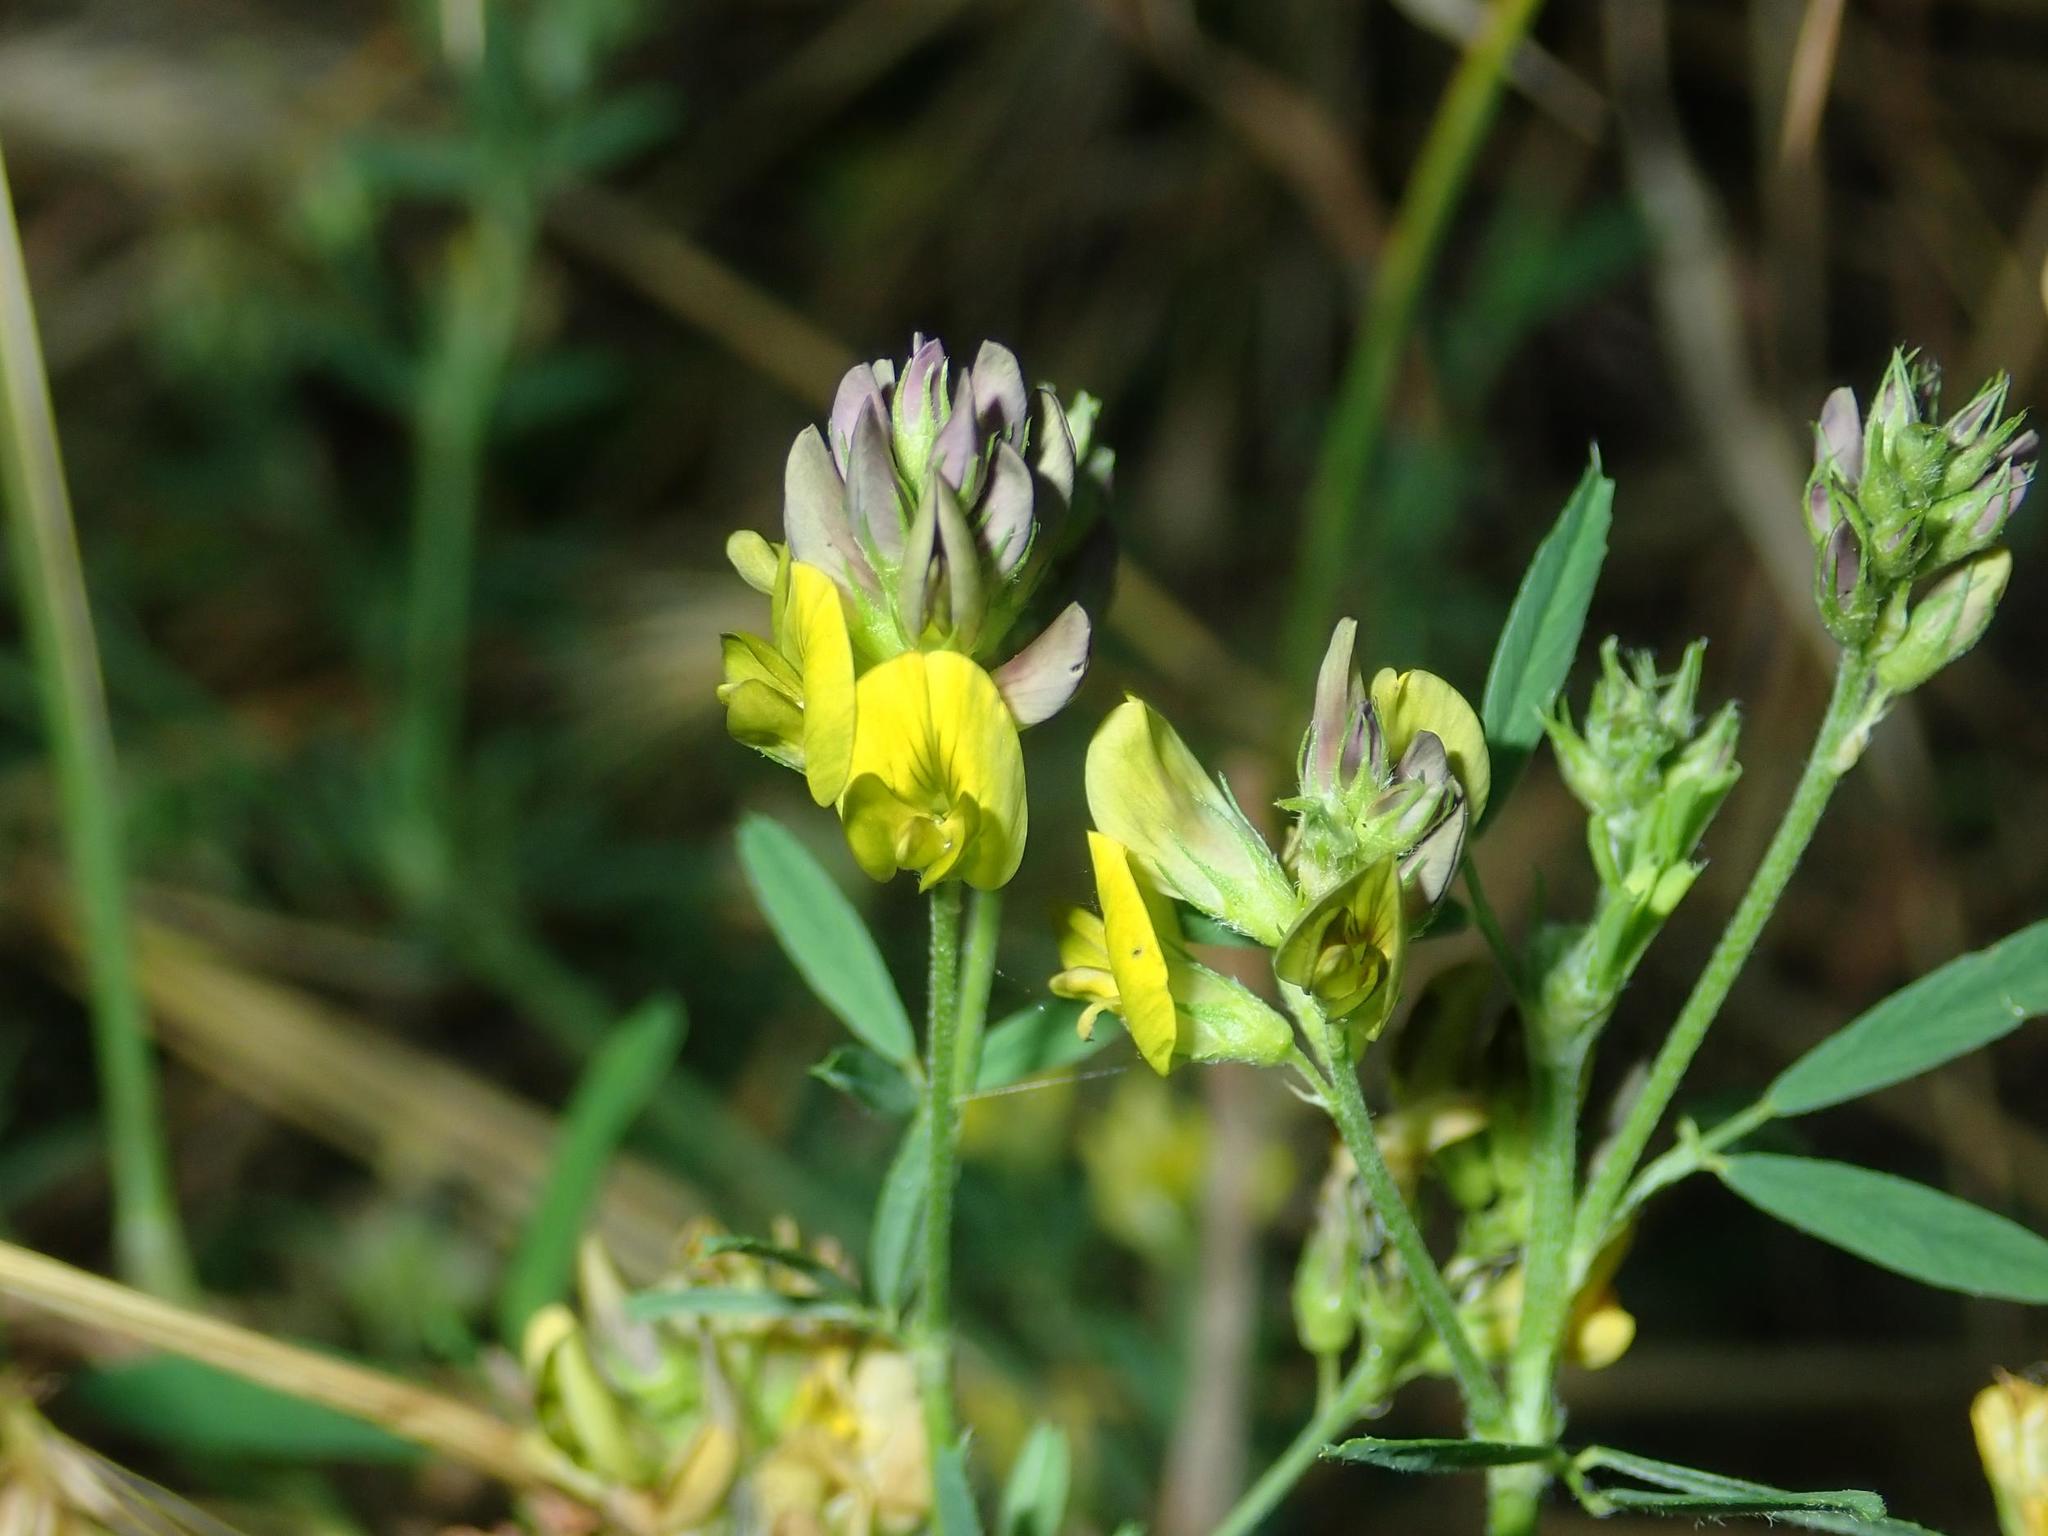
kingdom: Plantae
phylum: Tracheophyta
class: Magnoliopsida
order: Fabales
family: Fabaceae
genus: Medicago
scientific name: Medicago varia
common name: Sand lucerne
